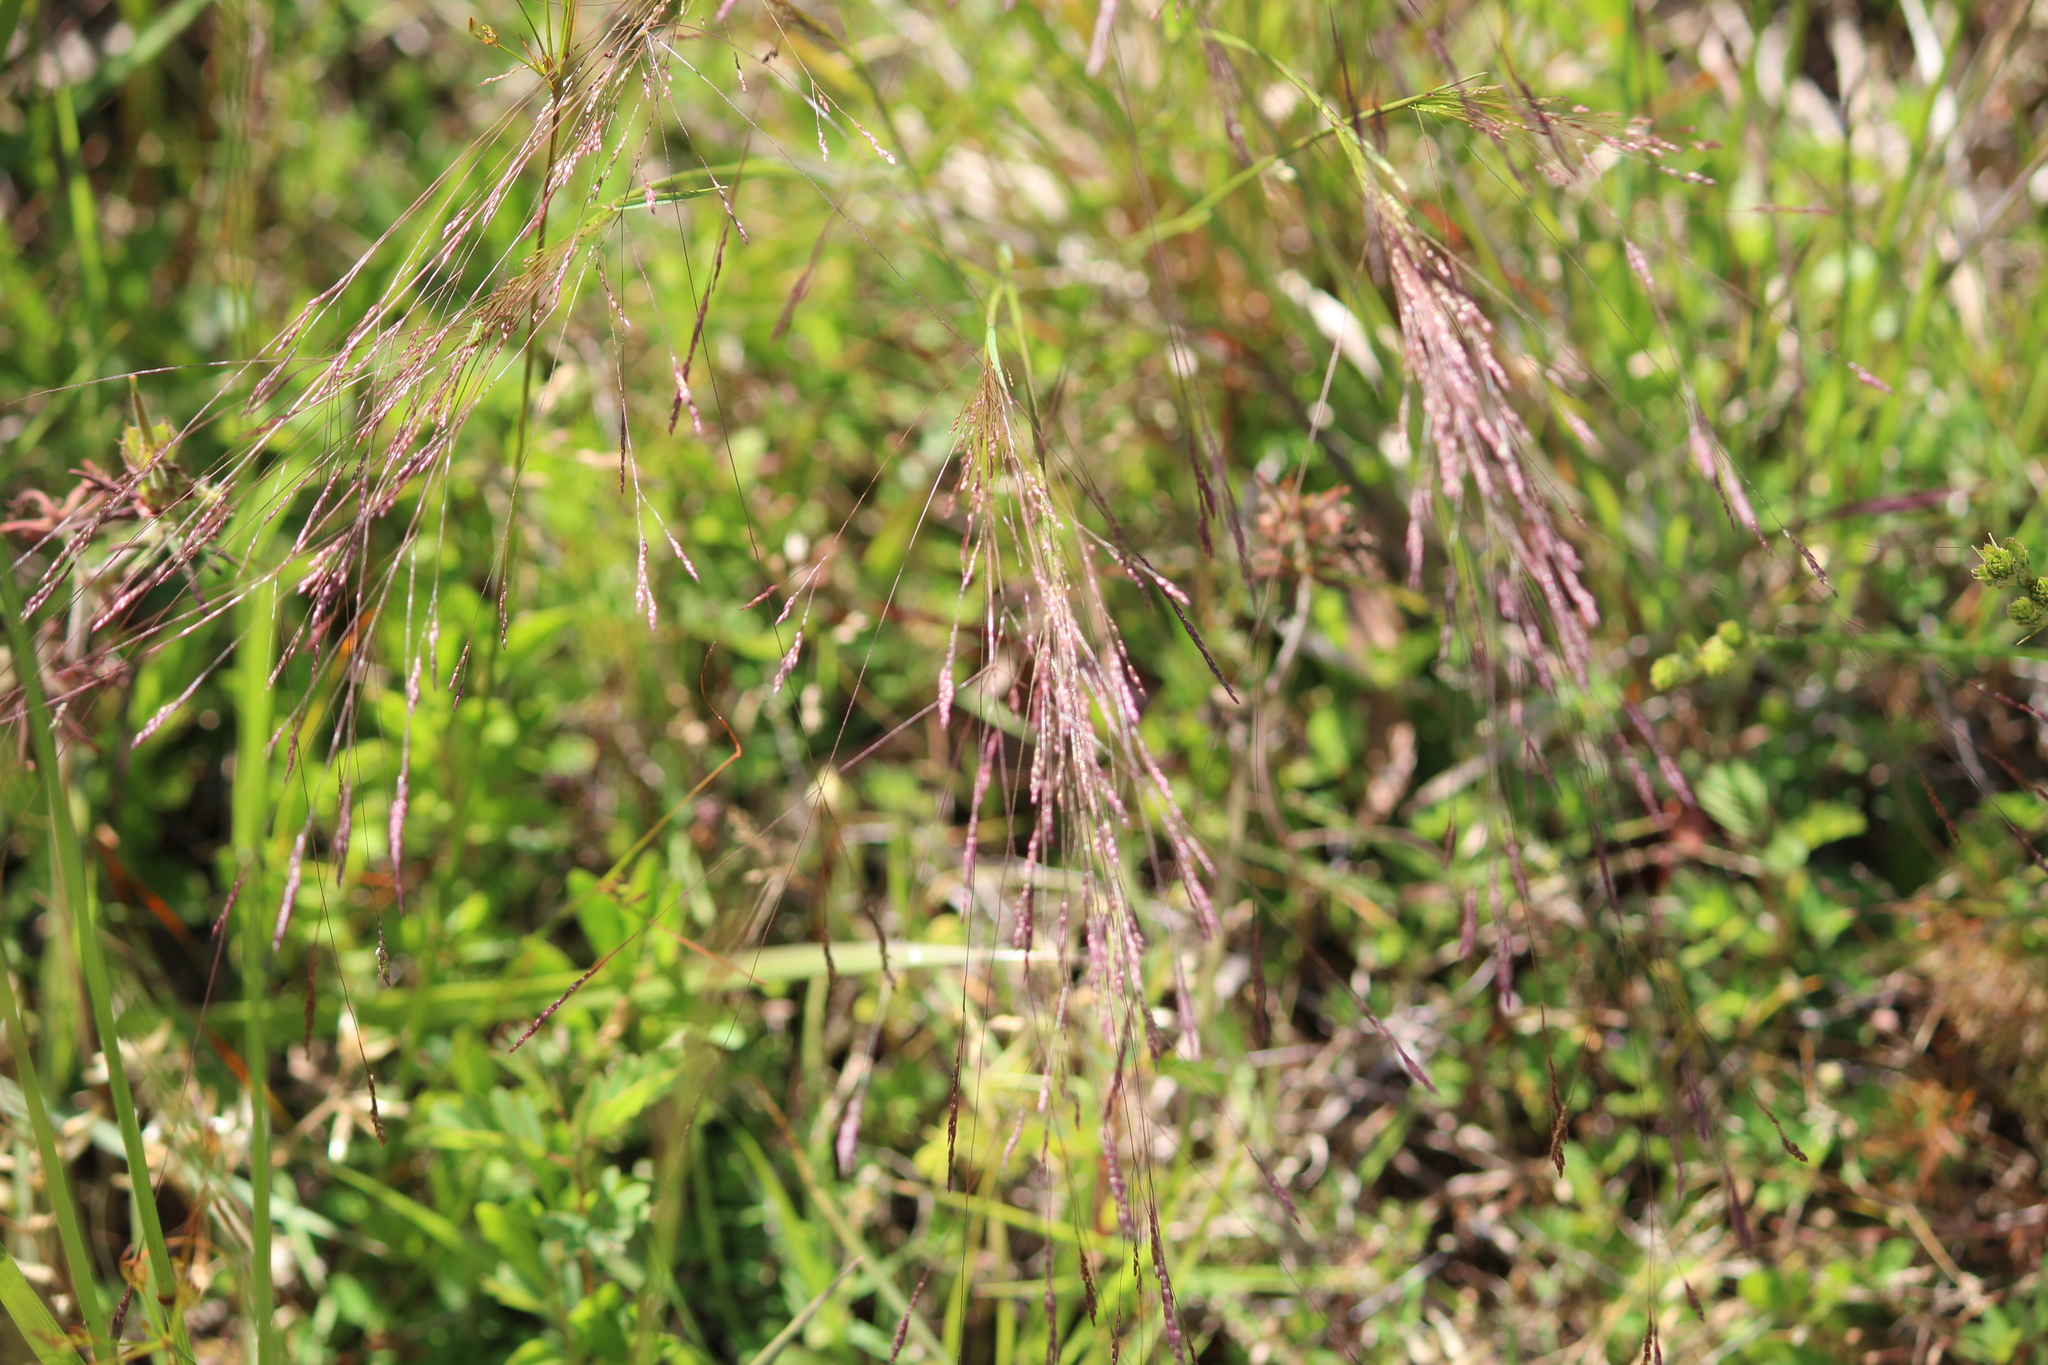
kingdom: Plantae
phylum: Tracheophyta
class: Liliopsida
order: Poales
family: Poaceae
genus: Agrostis
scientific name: Agrostis hyemalis
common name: Small bent
